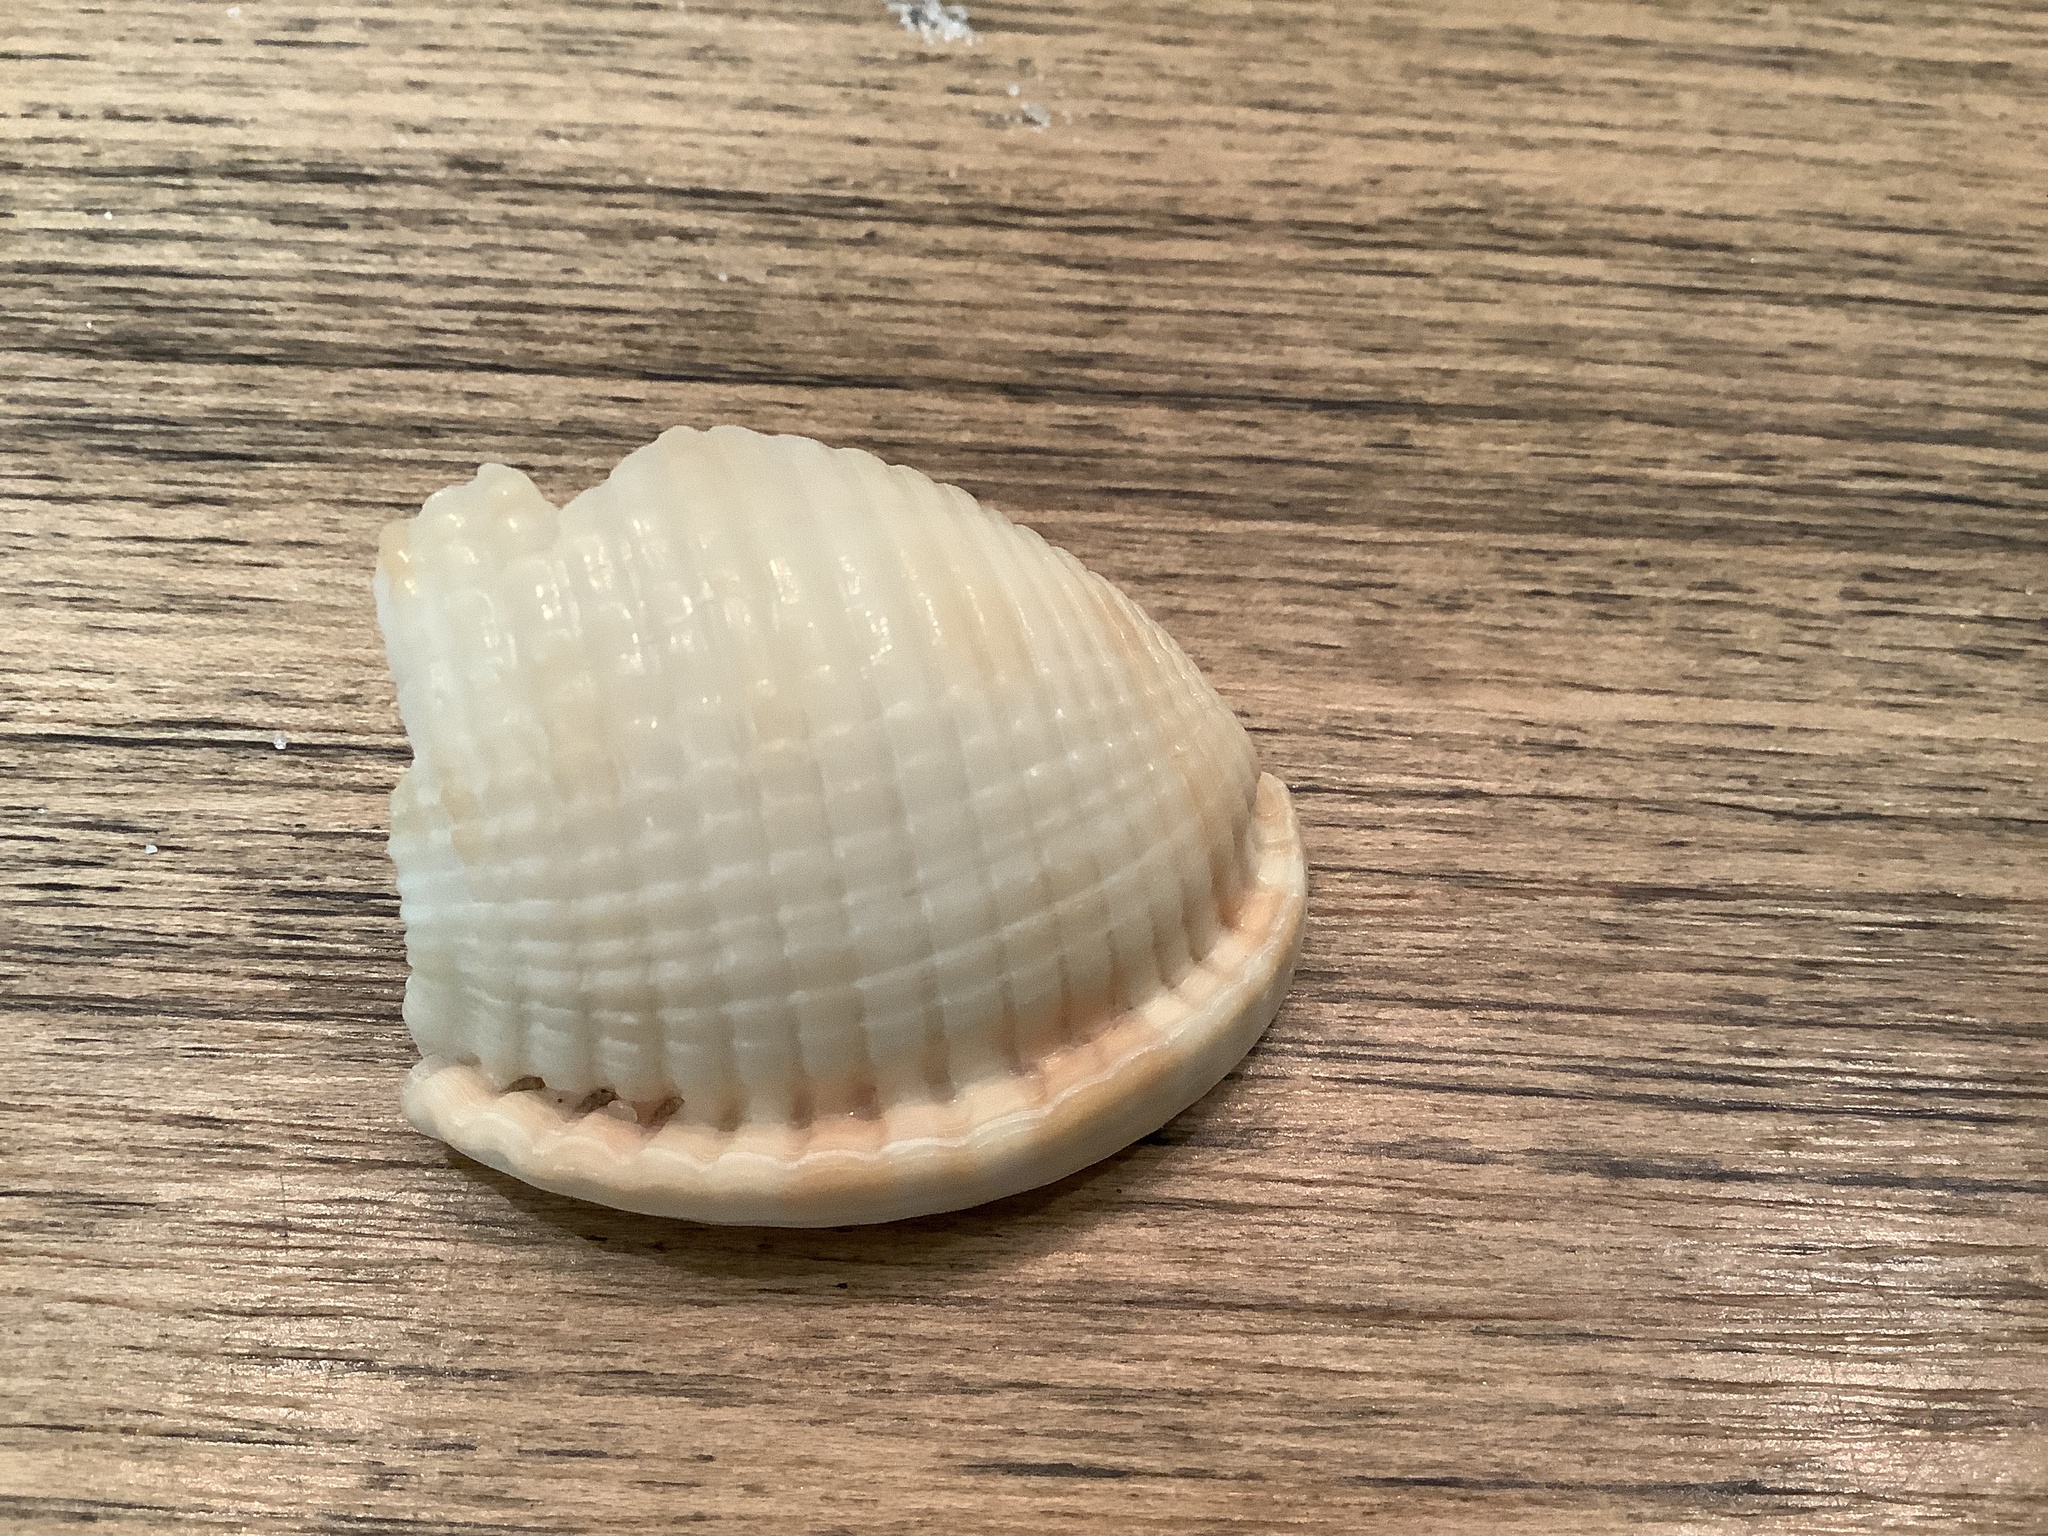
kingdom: Animalia
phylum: Mollusca
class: Gastropoda
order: Littorinimorpha
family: Cassidae
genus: Semicassis
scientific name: Semicassis granulata
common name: Scotch bonnet
